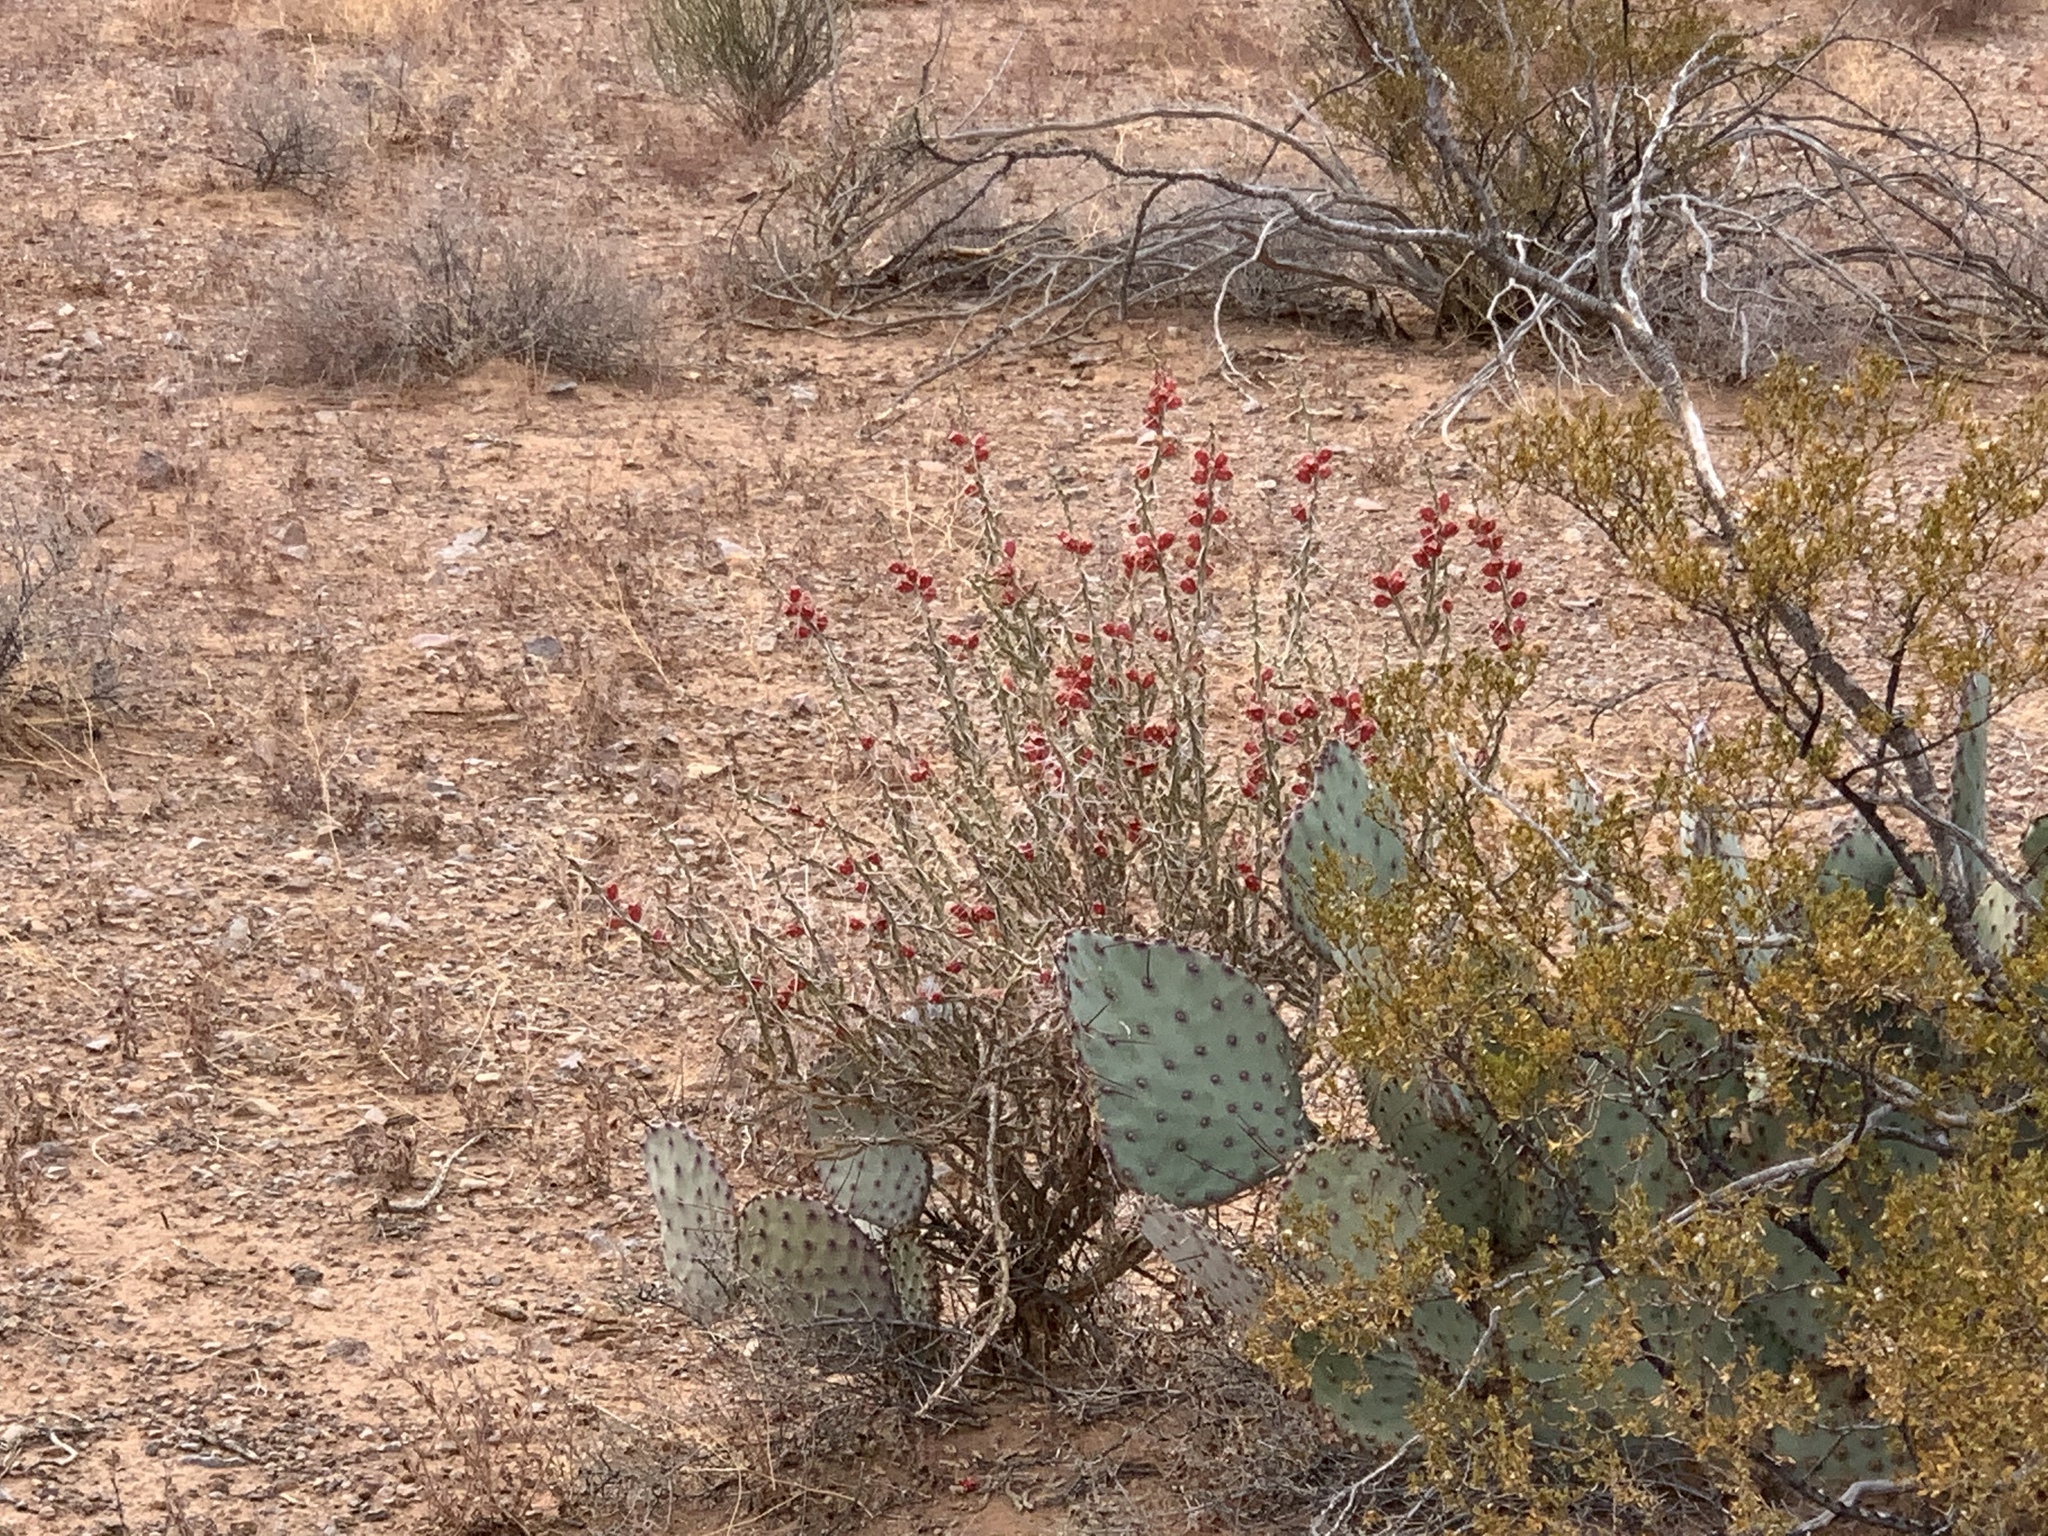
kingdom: Plantae
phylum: Tracheophyta
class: Magnoliopsida
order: Caryophyllales
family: Cactaceae
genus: Cylindropuntia
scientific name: Cylindropuntia leptocaulis
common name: Christmas cactus
